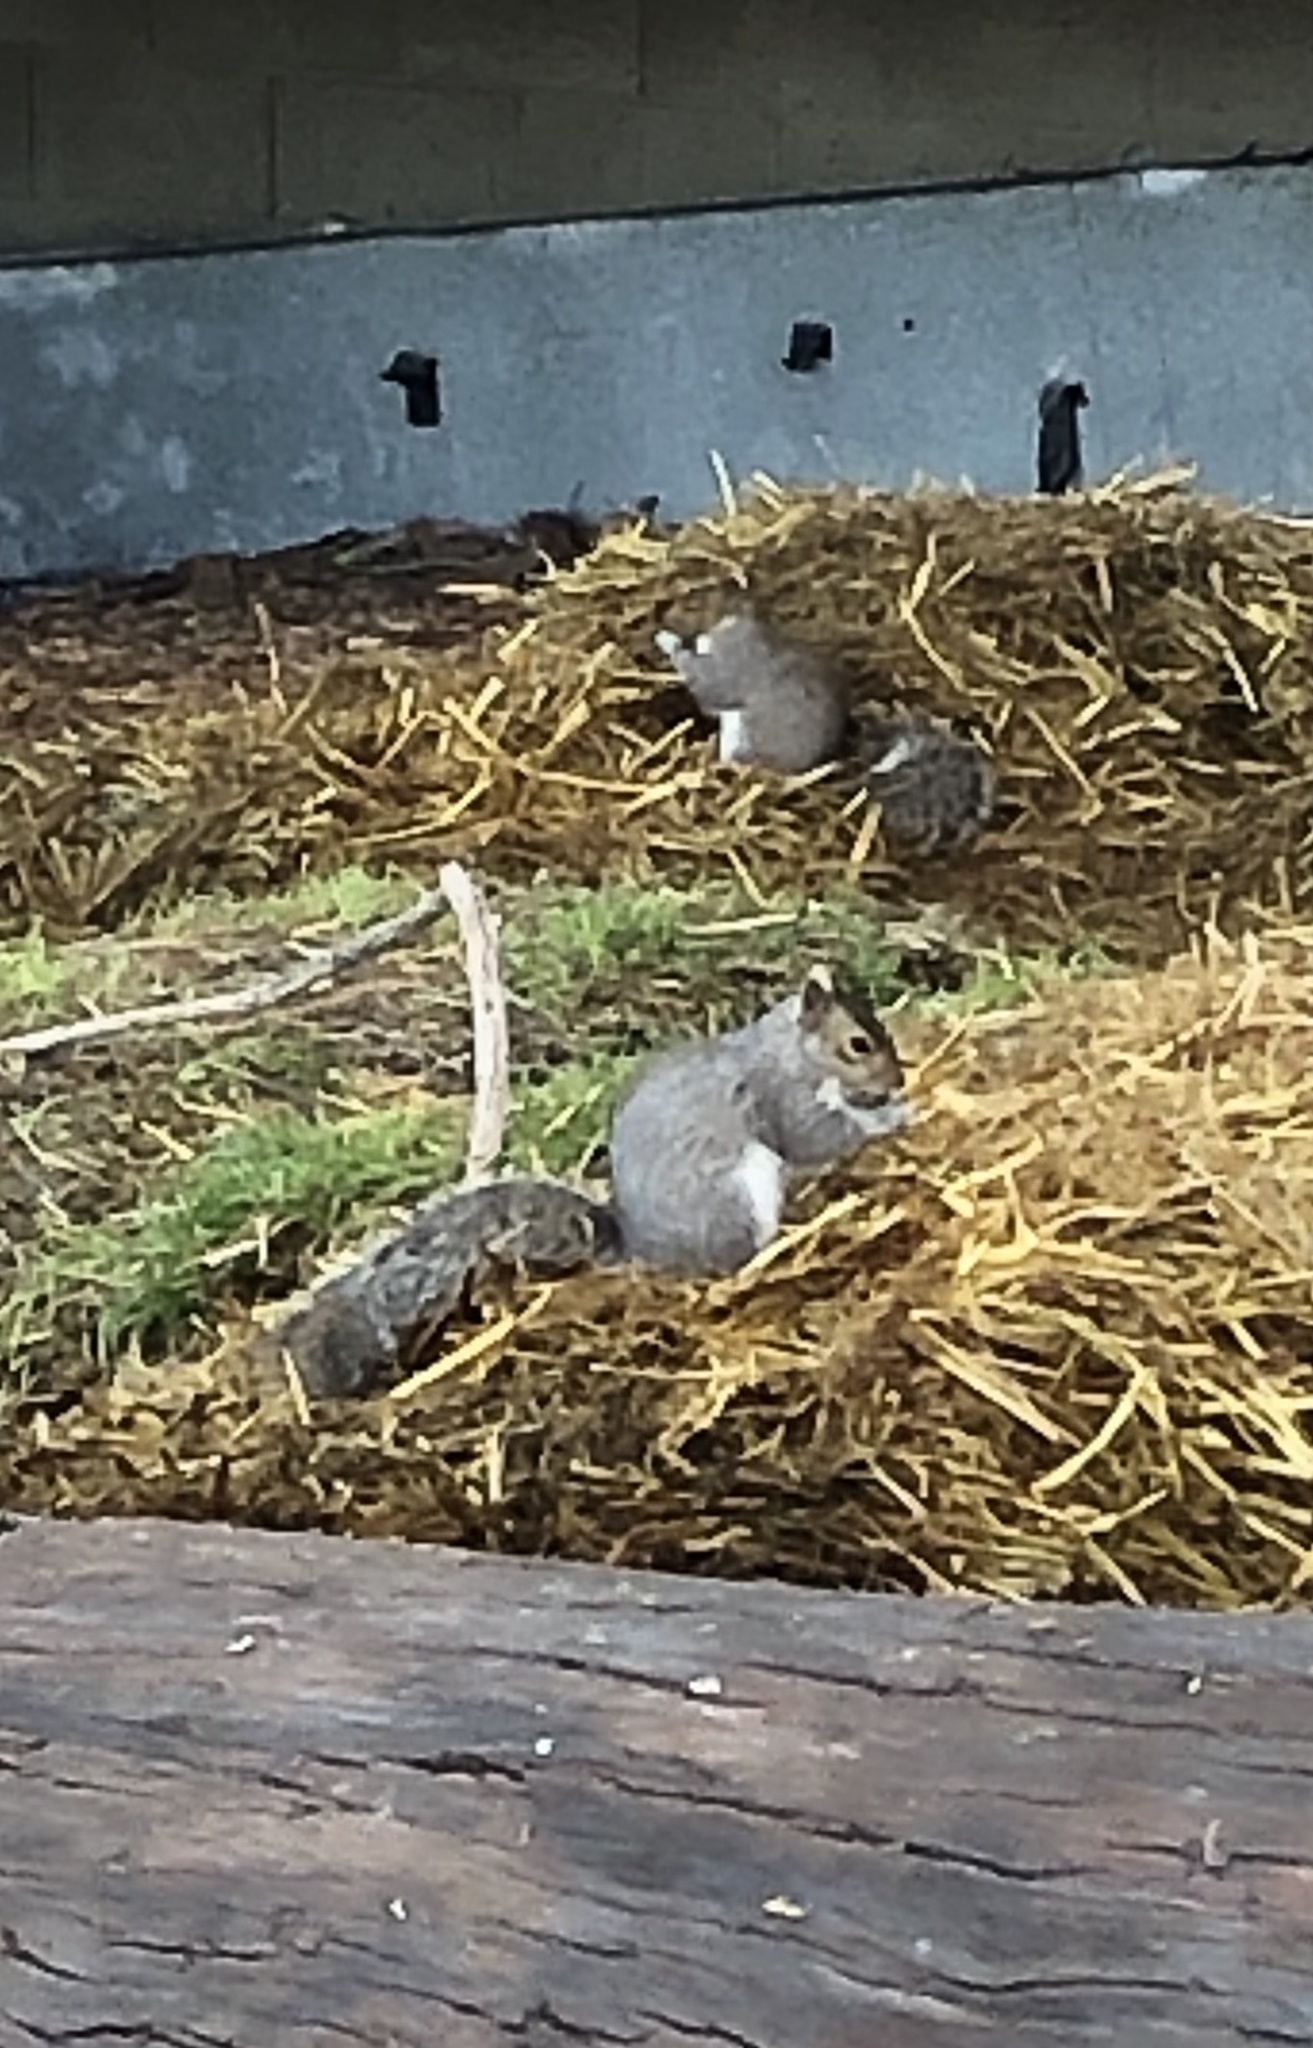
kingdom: Animalia
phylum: Chordata
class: Mammalia
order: Rodentia
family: Sciuridae
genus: Sciurus
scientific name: Sciurus carolinensis
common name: Eastern gray squirrel
